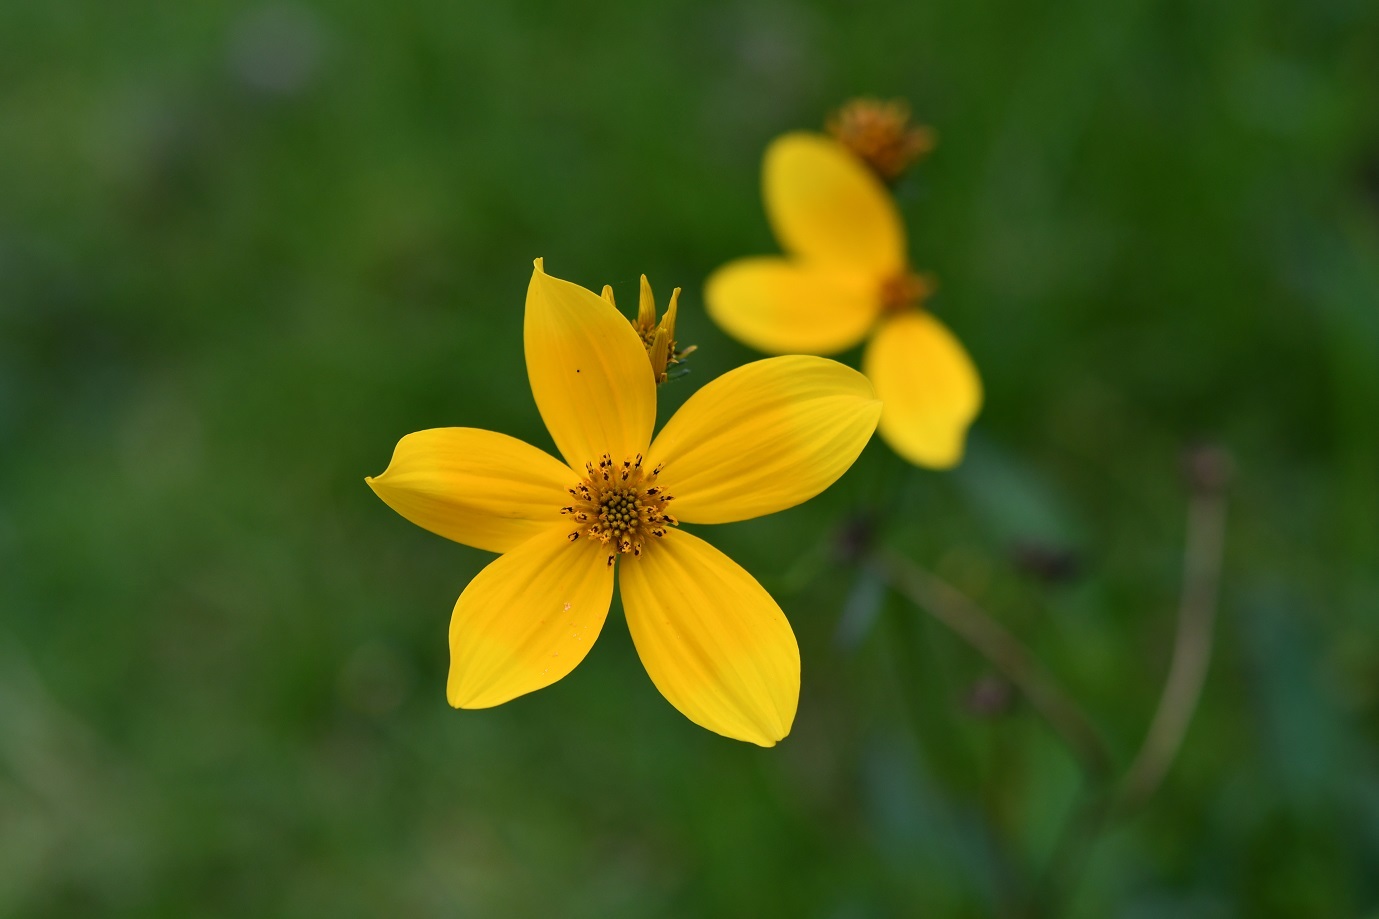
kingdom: Plantae
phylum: Tracheophyta
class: Magnoliopsida
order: Asterales
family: Asteraceae
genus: Bidens
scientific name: Bidens aurea
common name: Arizona beggar-ticks
